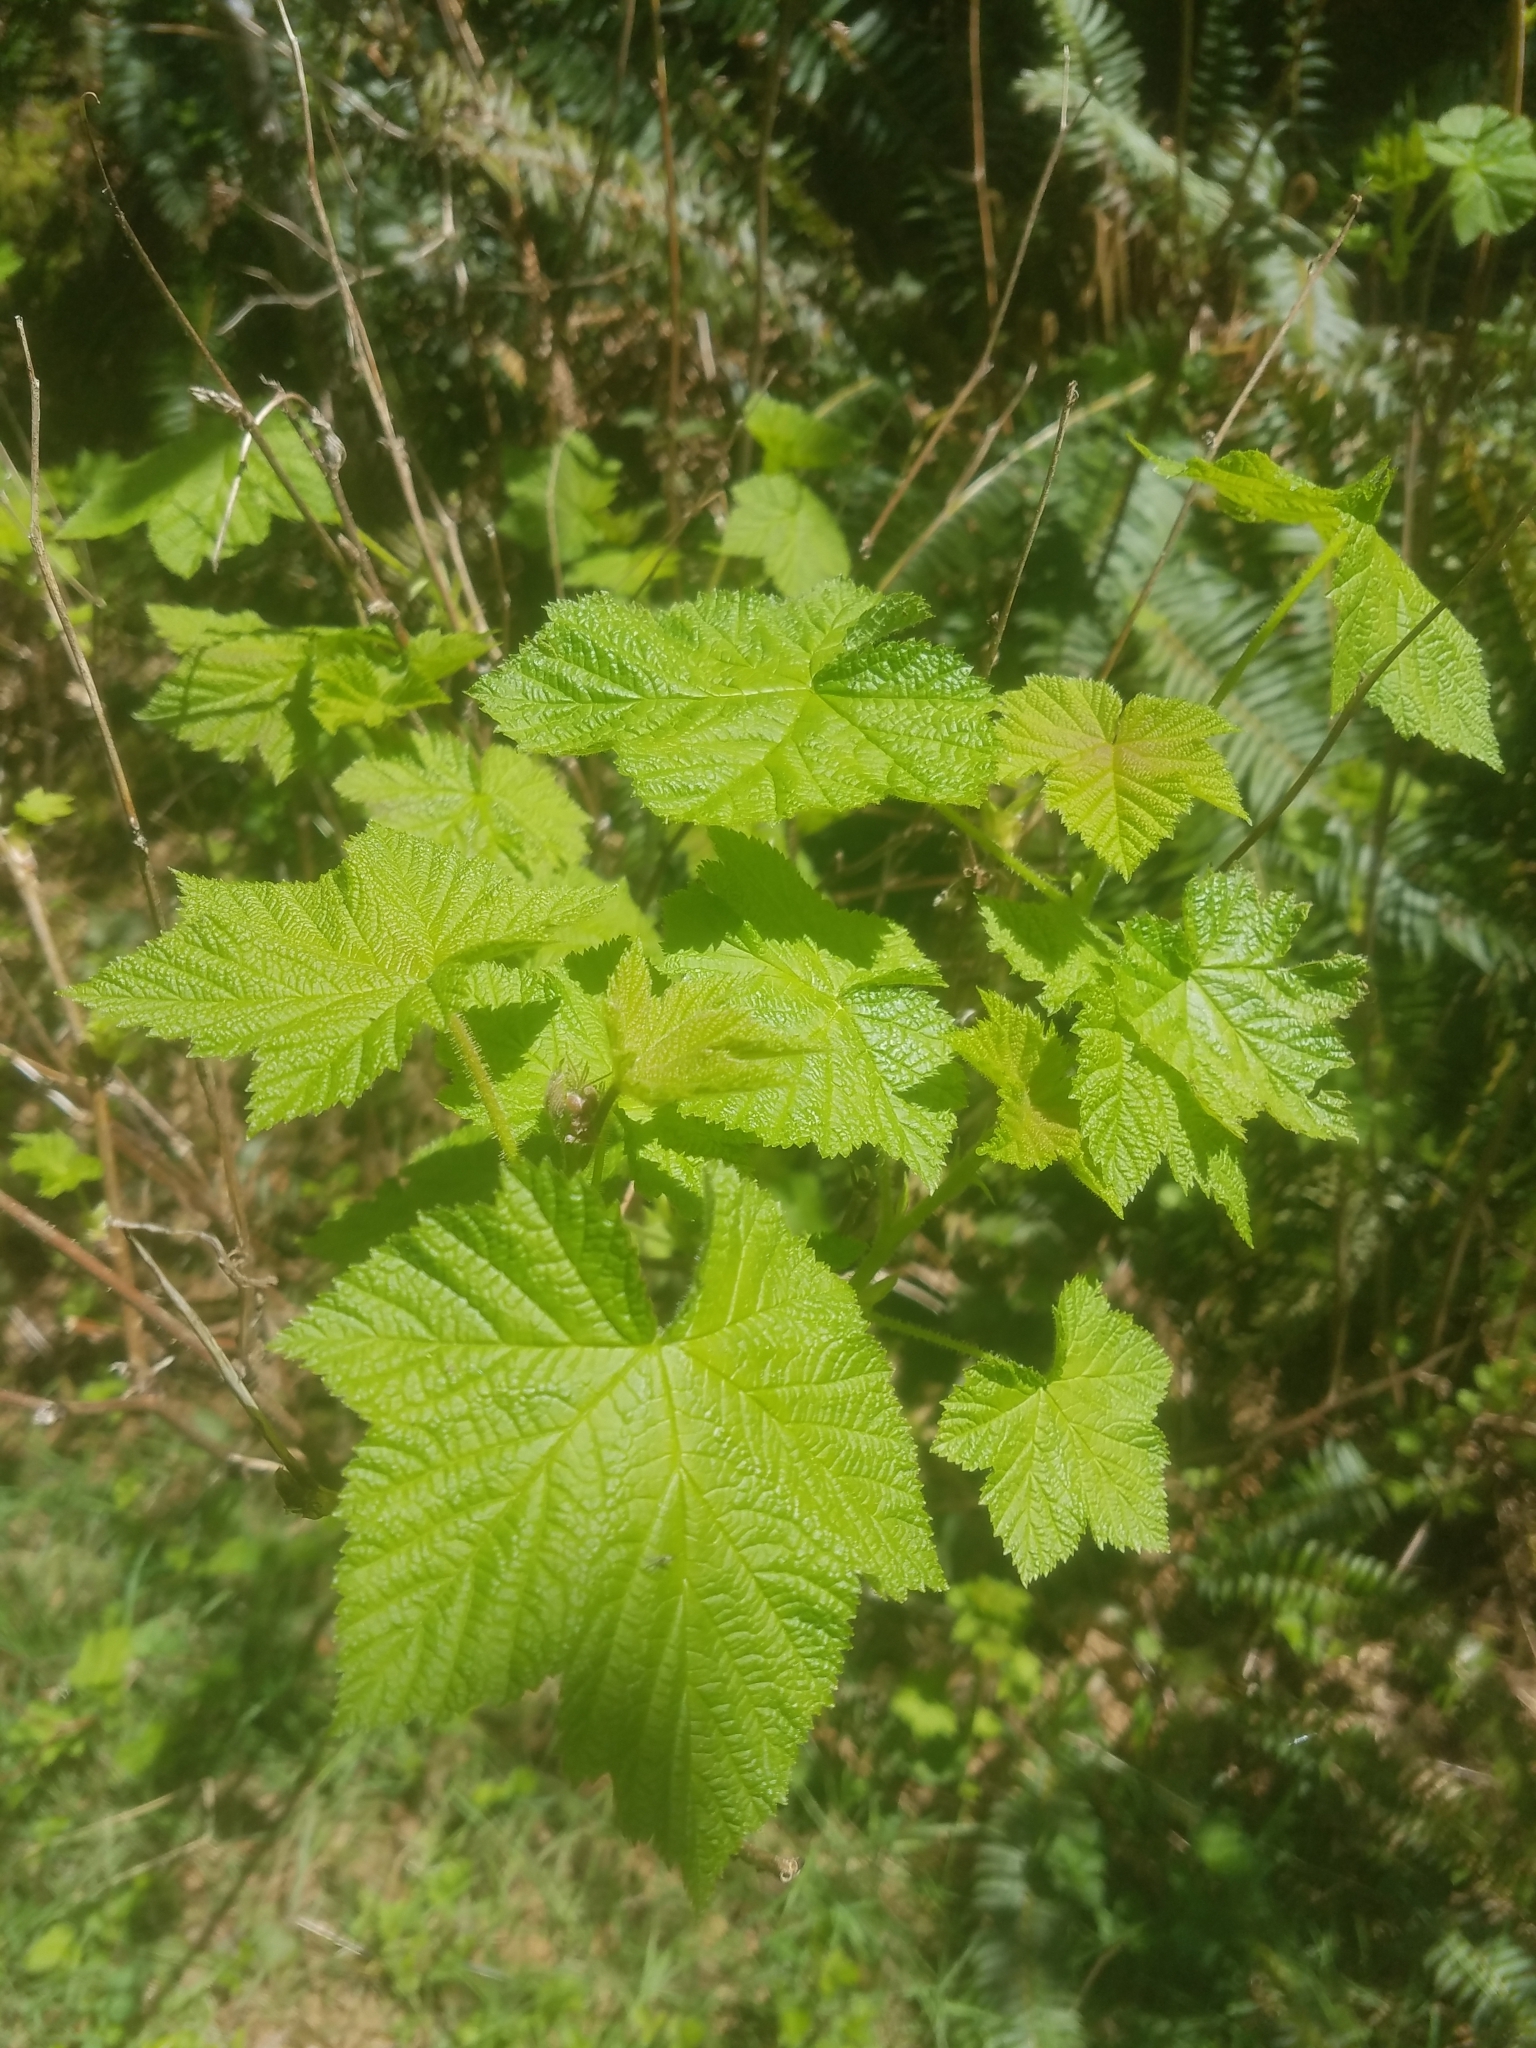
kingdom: Plantae
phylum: Tracheophyta
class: Magnoliopsida
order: Rosales
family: Rosaceae
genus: Rubus
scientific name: Rubus parviflorus
